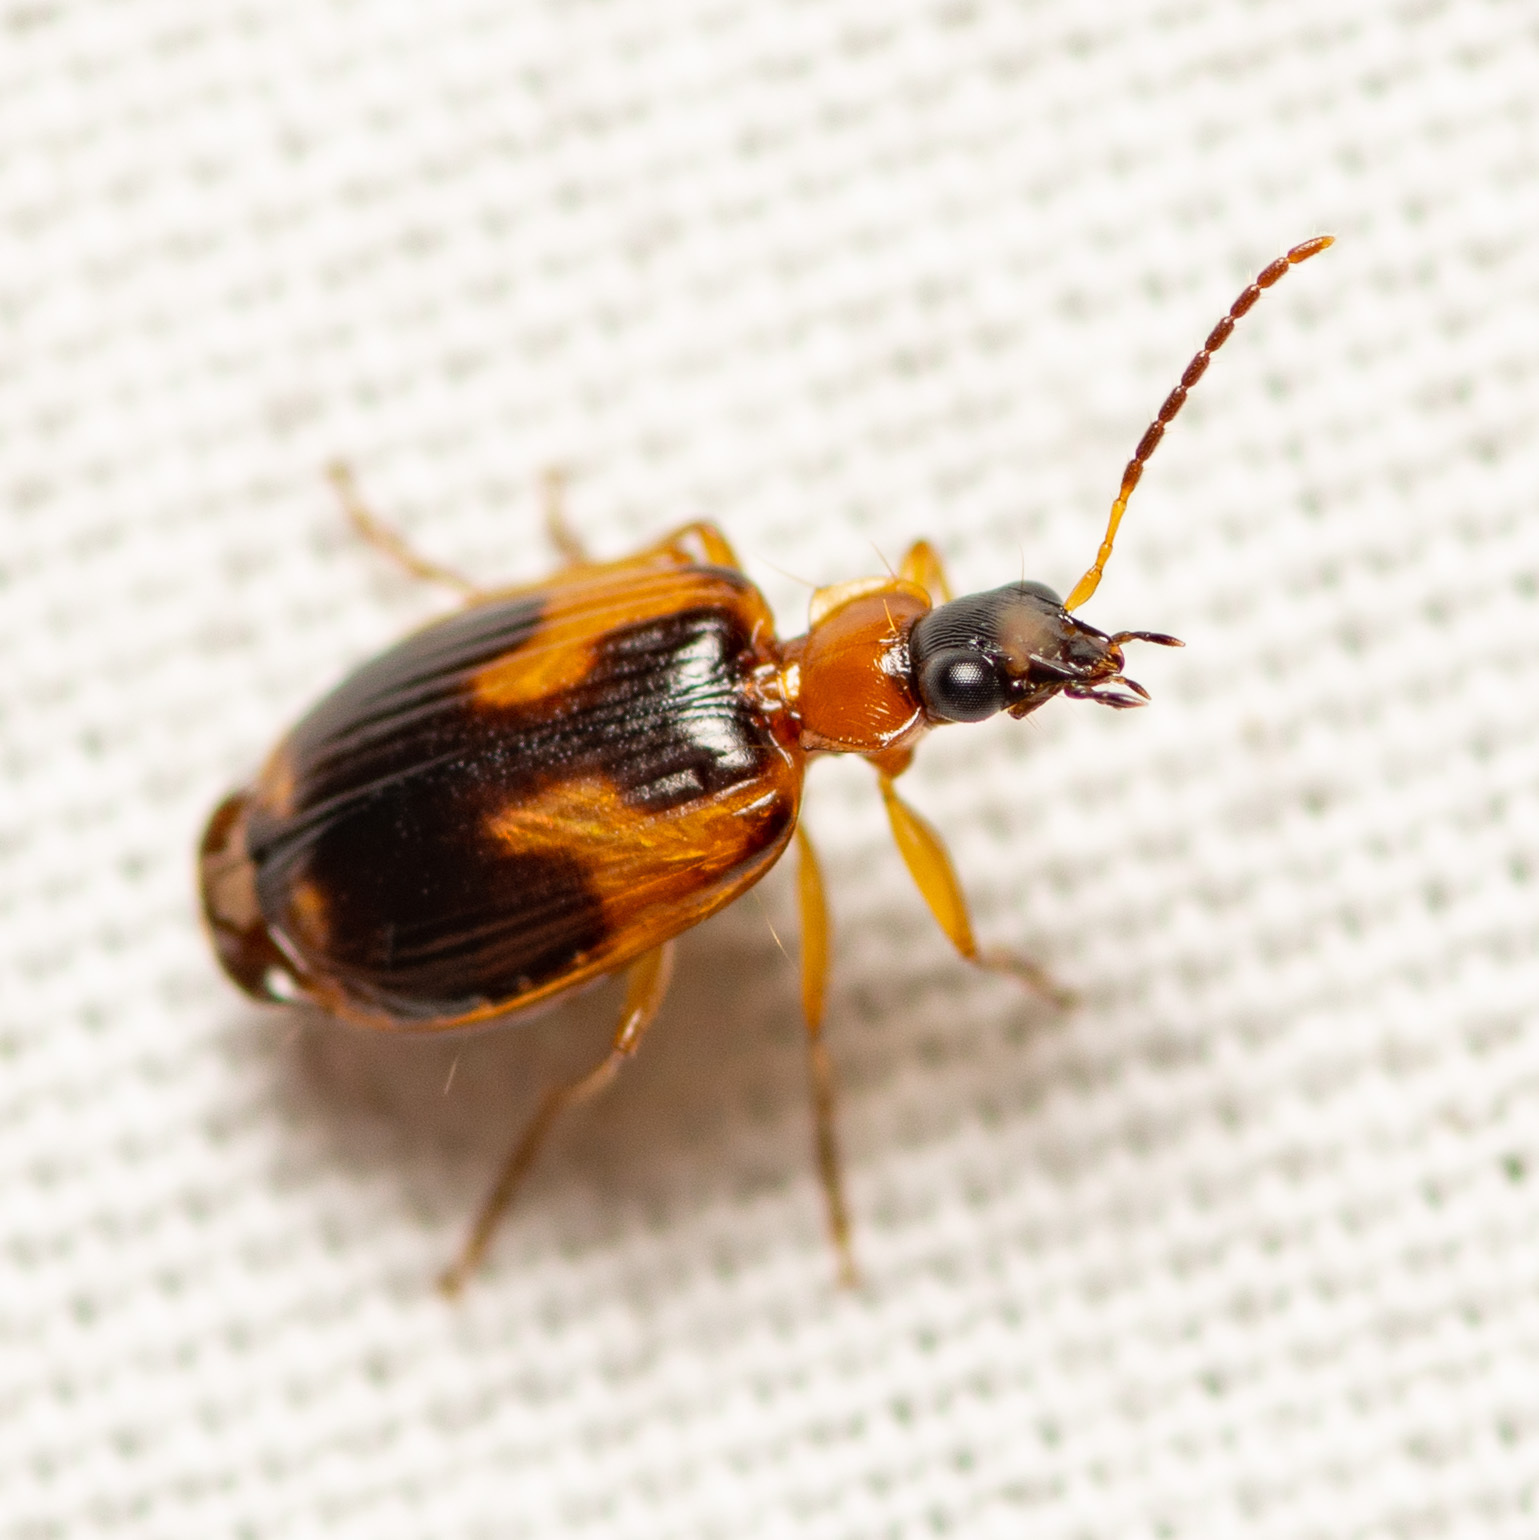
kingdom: Animalia
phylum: Arthropoda
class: Insecta
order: Coleoptera
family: Carabidae
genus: Lebia
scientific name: Lebia analis
